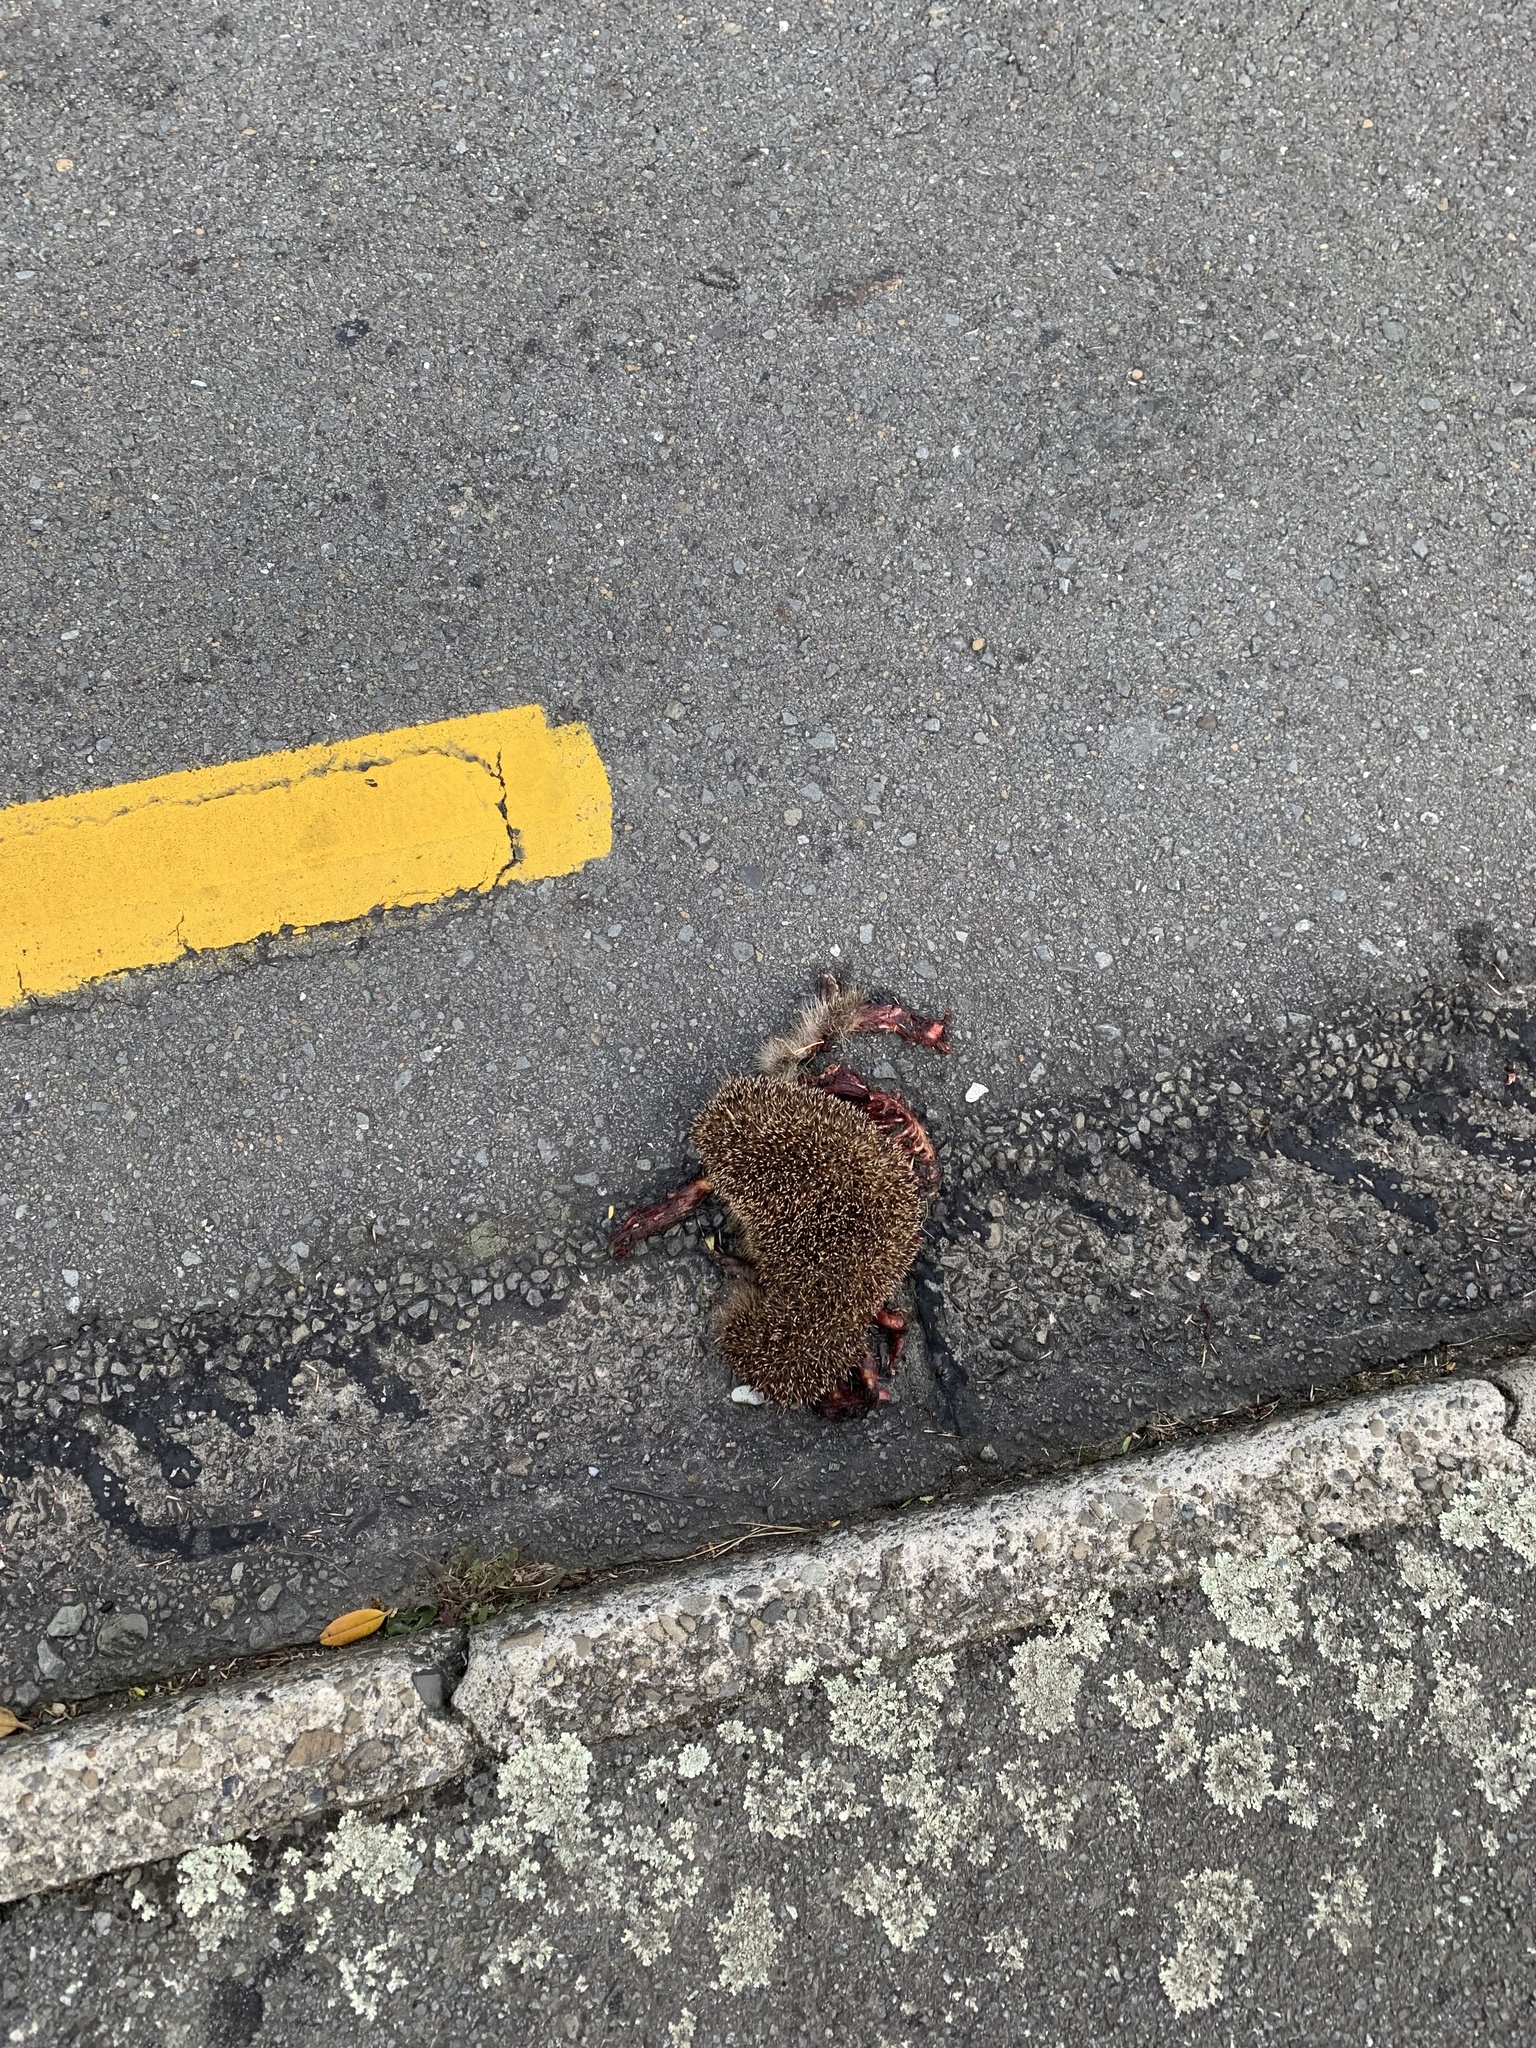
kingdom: Animalia
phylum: Chordata
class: Mammalia
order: Erinaceomorpha
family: Erinaceidae
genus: Erinaceus
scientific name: Erinaceus europaeus
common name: West european hedgehog
